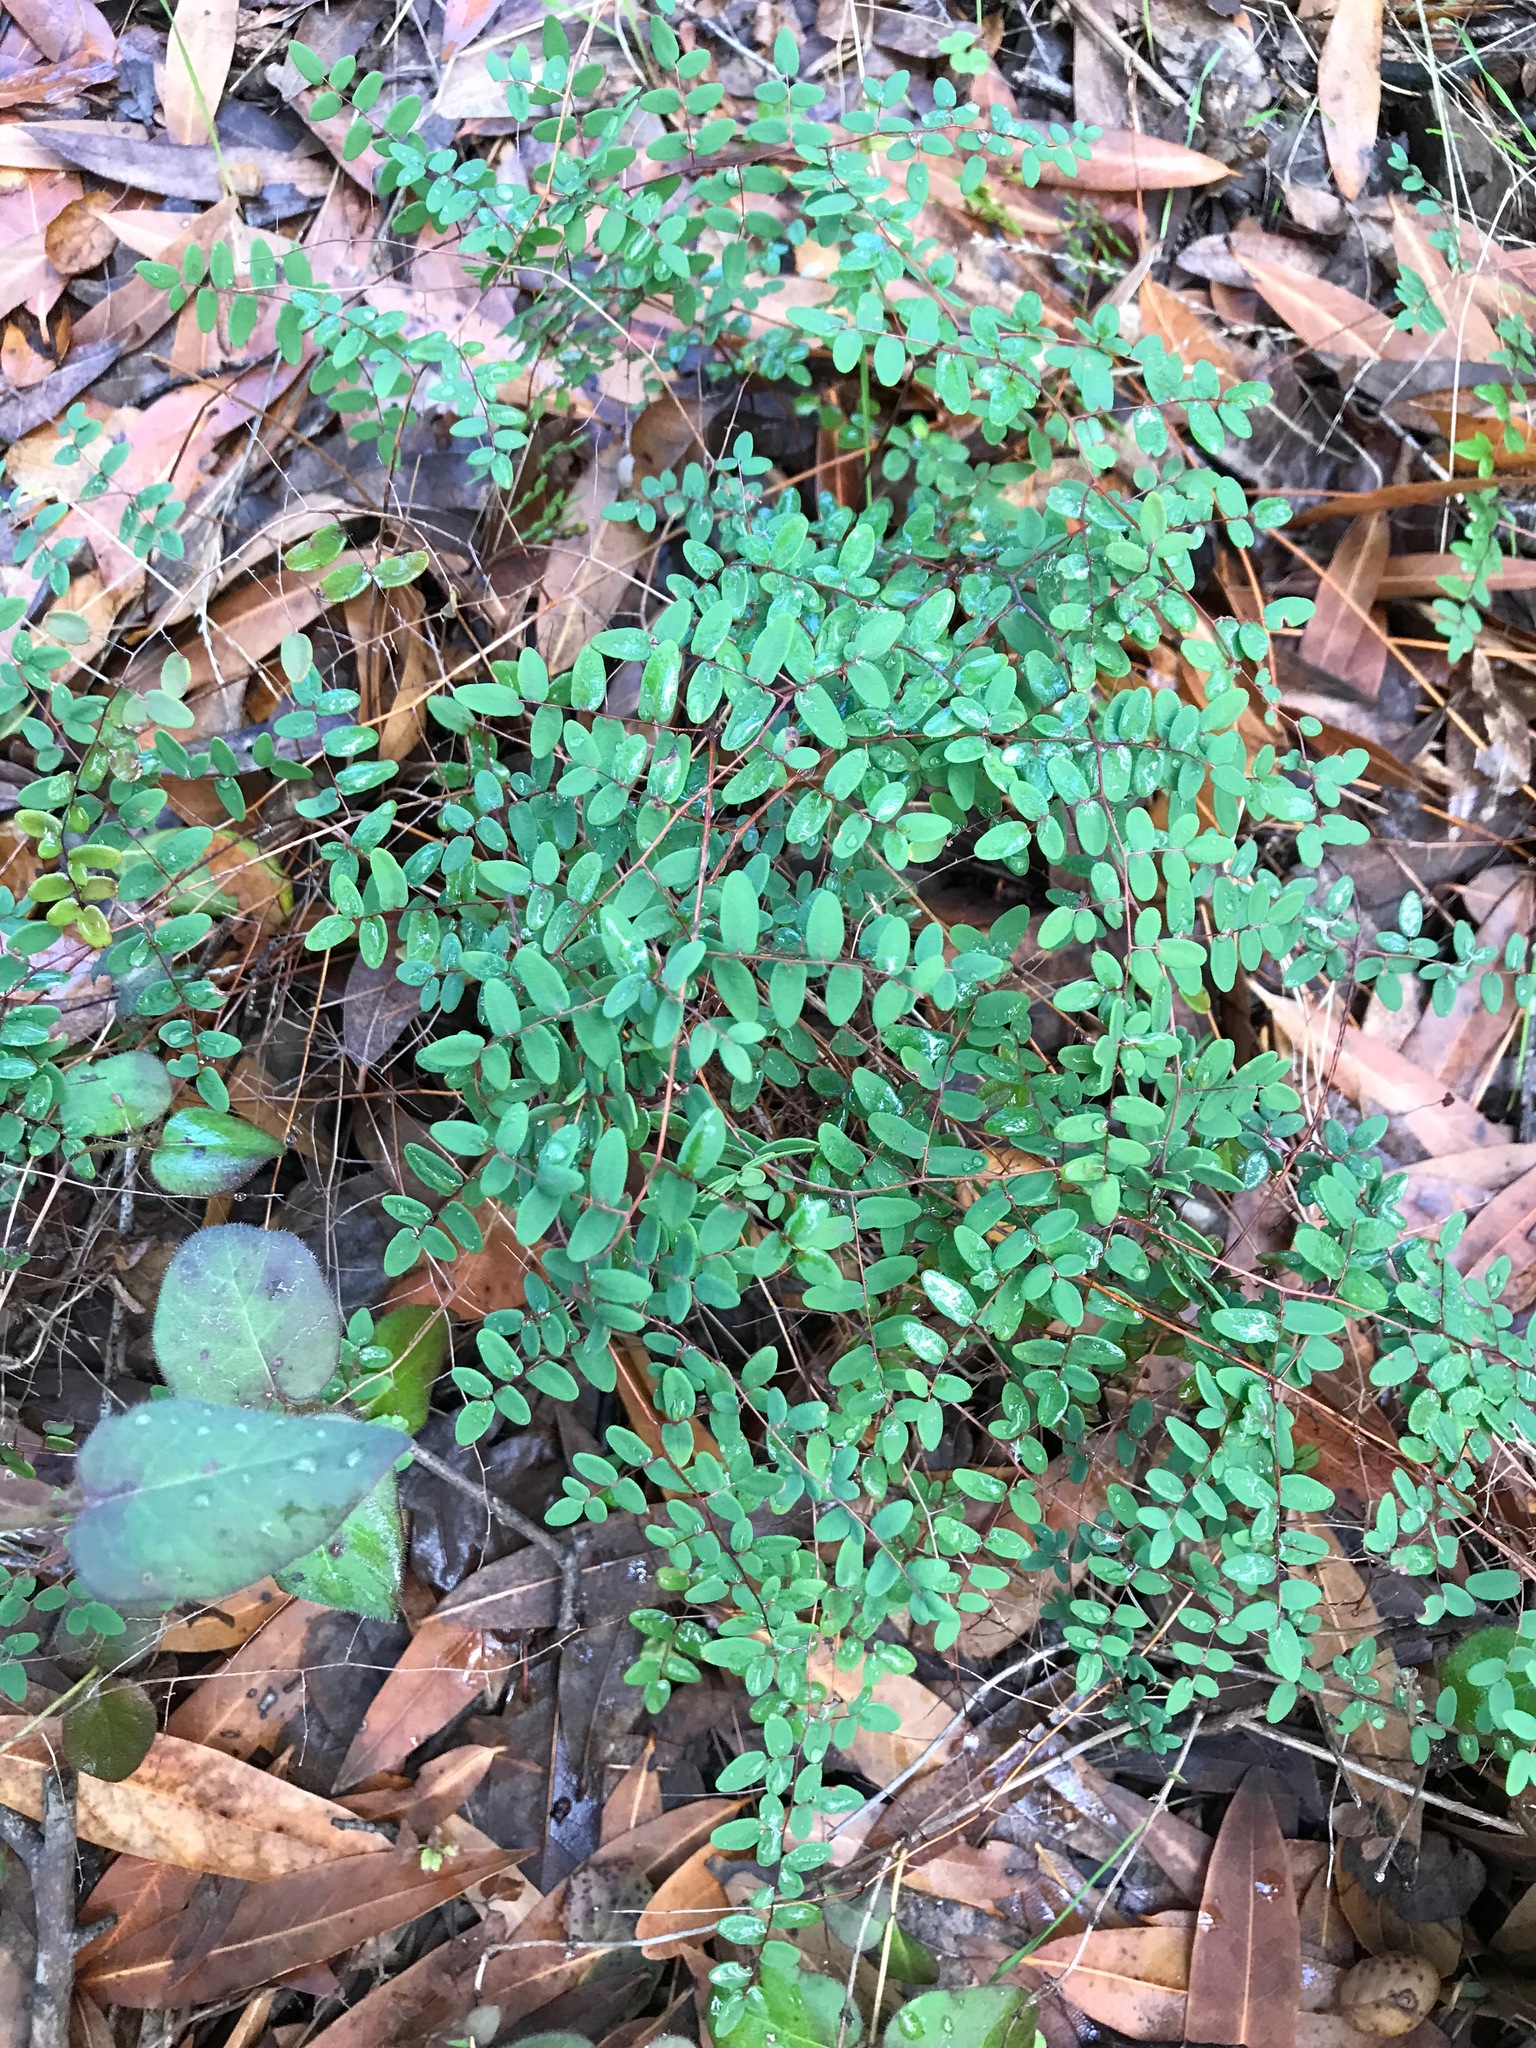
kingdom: Plantae
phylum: Tracheophyta
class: Polypodiopsida
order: Polypodiales
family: Pteridaceae
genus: Pellaea
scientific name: Pellaea andromedifolia
